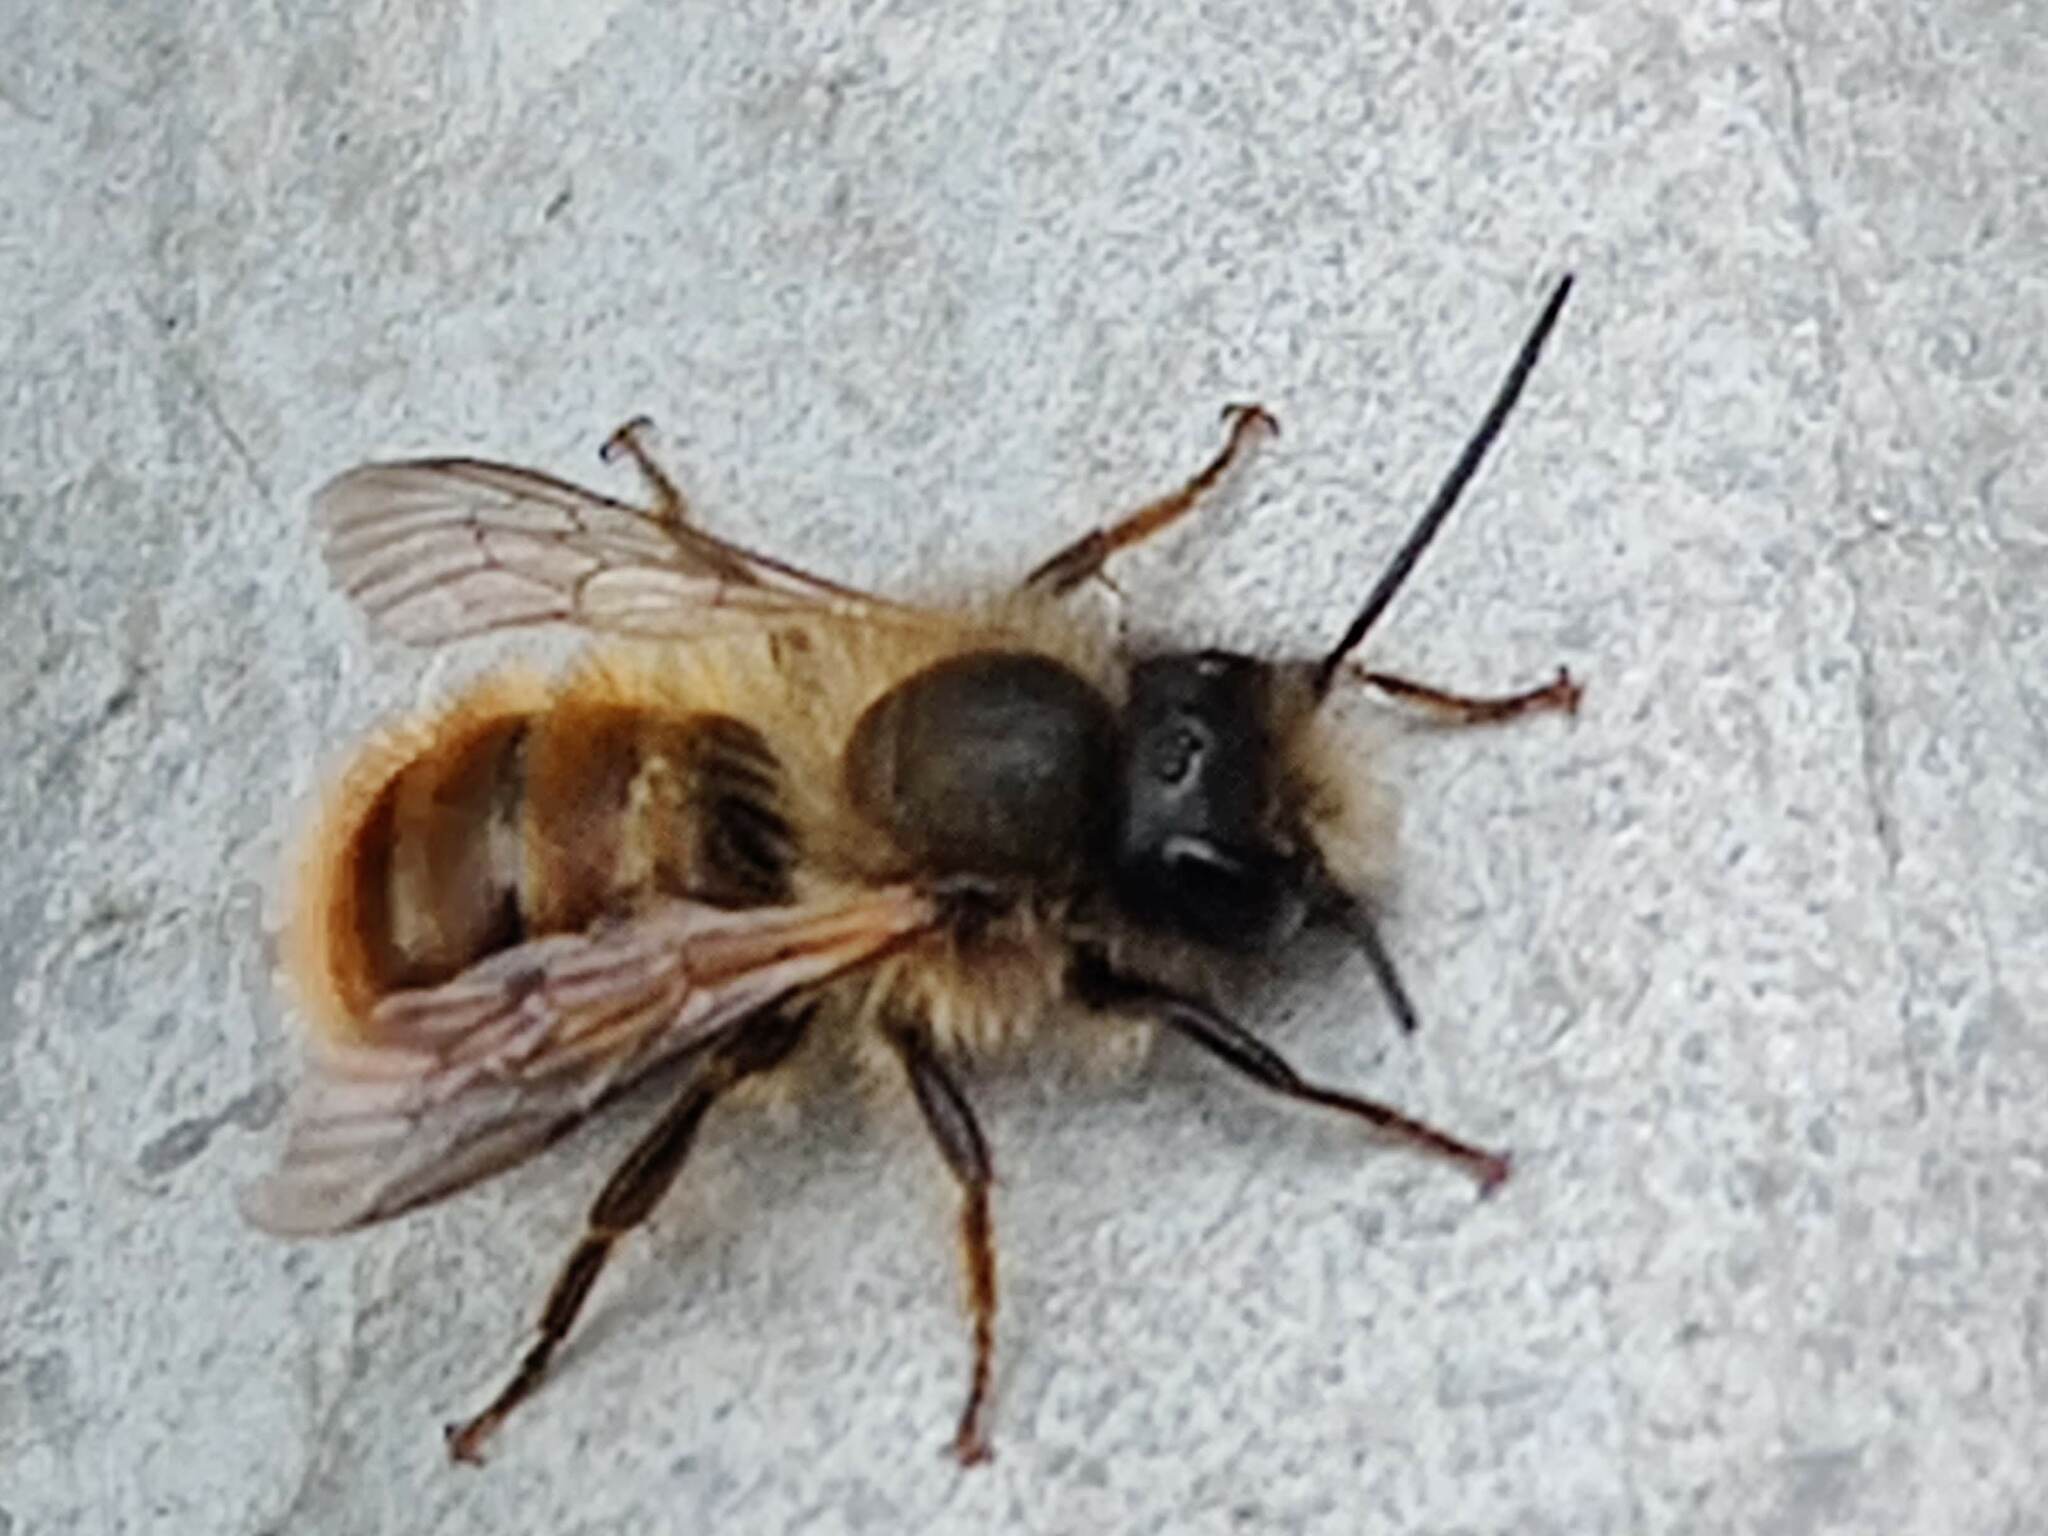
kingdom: Animalia
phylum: Arthropoda
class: Insecta
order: Hymenoptera
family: Megachilidae
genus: Osmia
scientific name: Osmia bicornis
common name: Red mason bee
